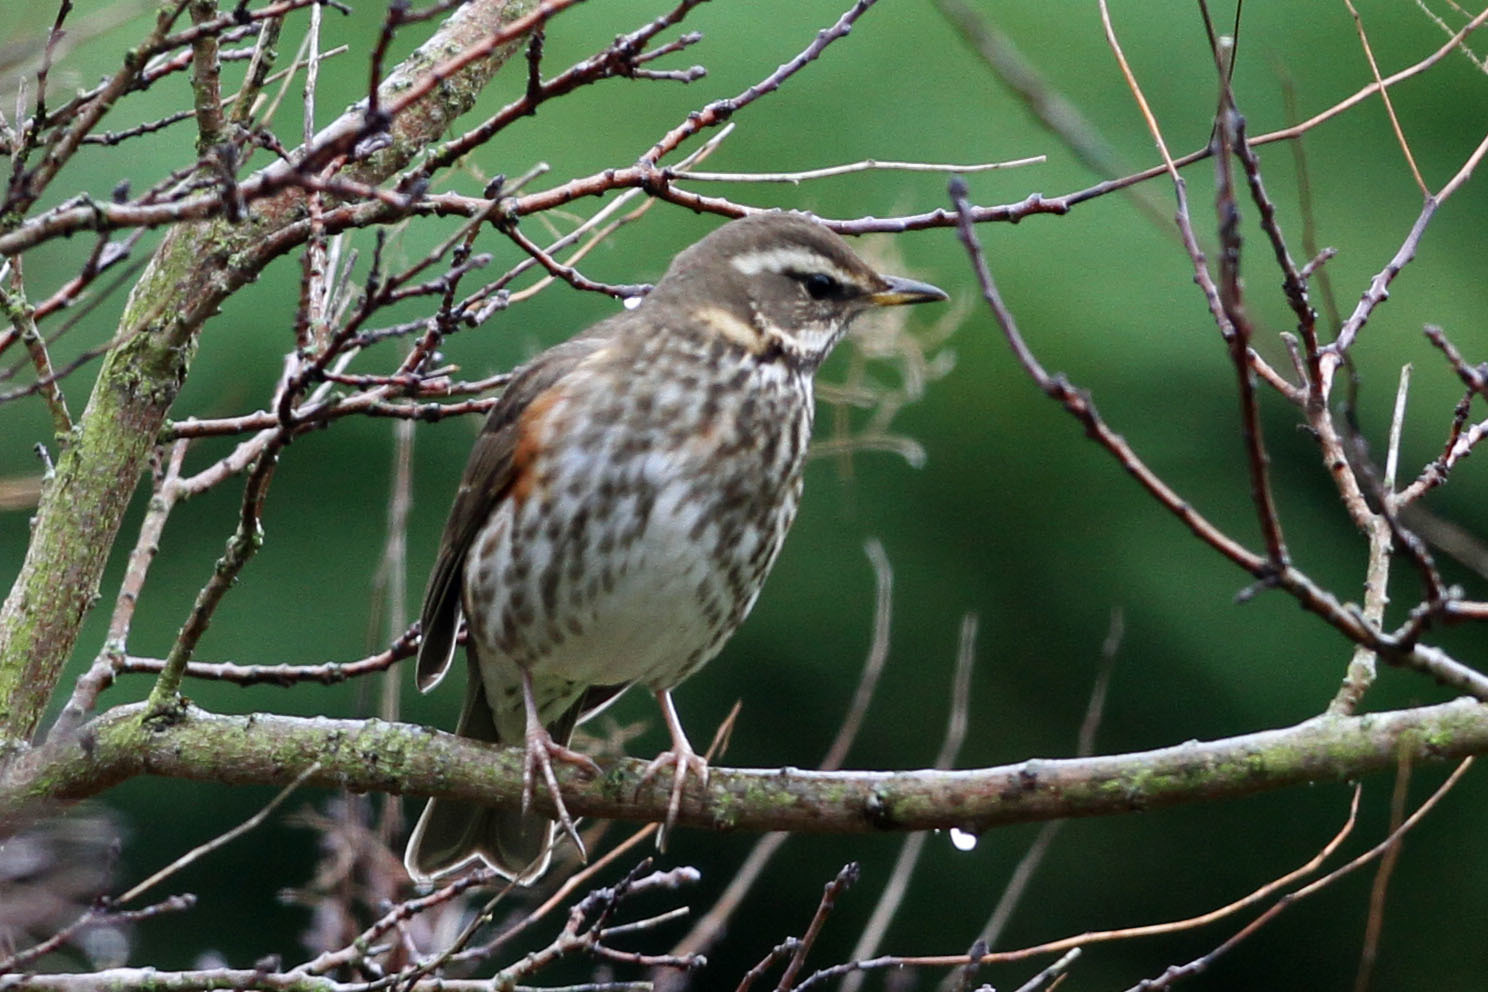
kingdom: Animalia
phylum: Chordata
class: Aves
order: Passeriformes
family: Turdidae
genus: Turdus
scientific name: Turdus iliacus
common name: Redwing
